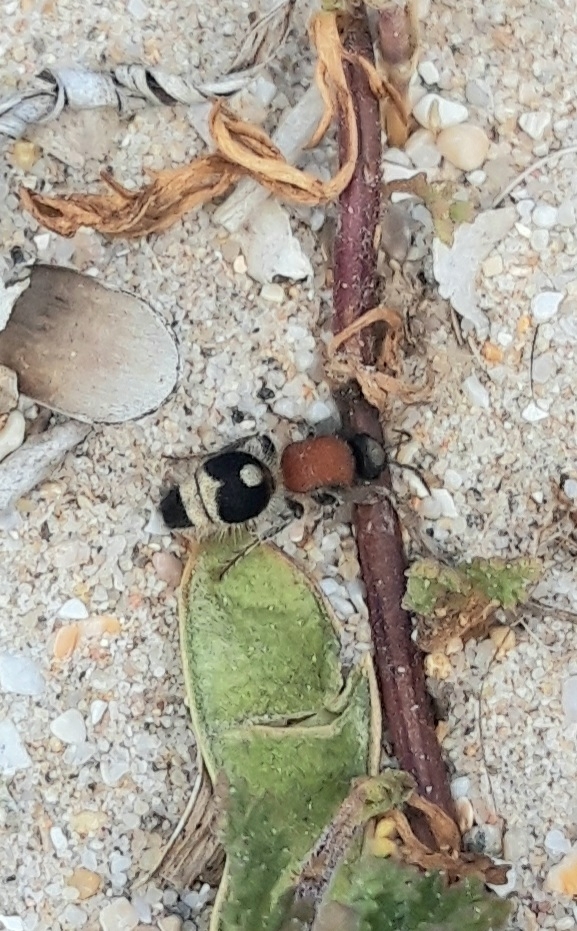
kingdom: Animalia
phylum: Arthropoda
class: Insecta
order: Hymenoptera
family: Mutillidae
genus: Nemka
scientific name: Nemka viduata
